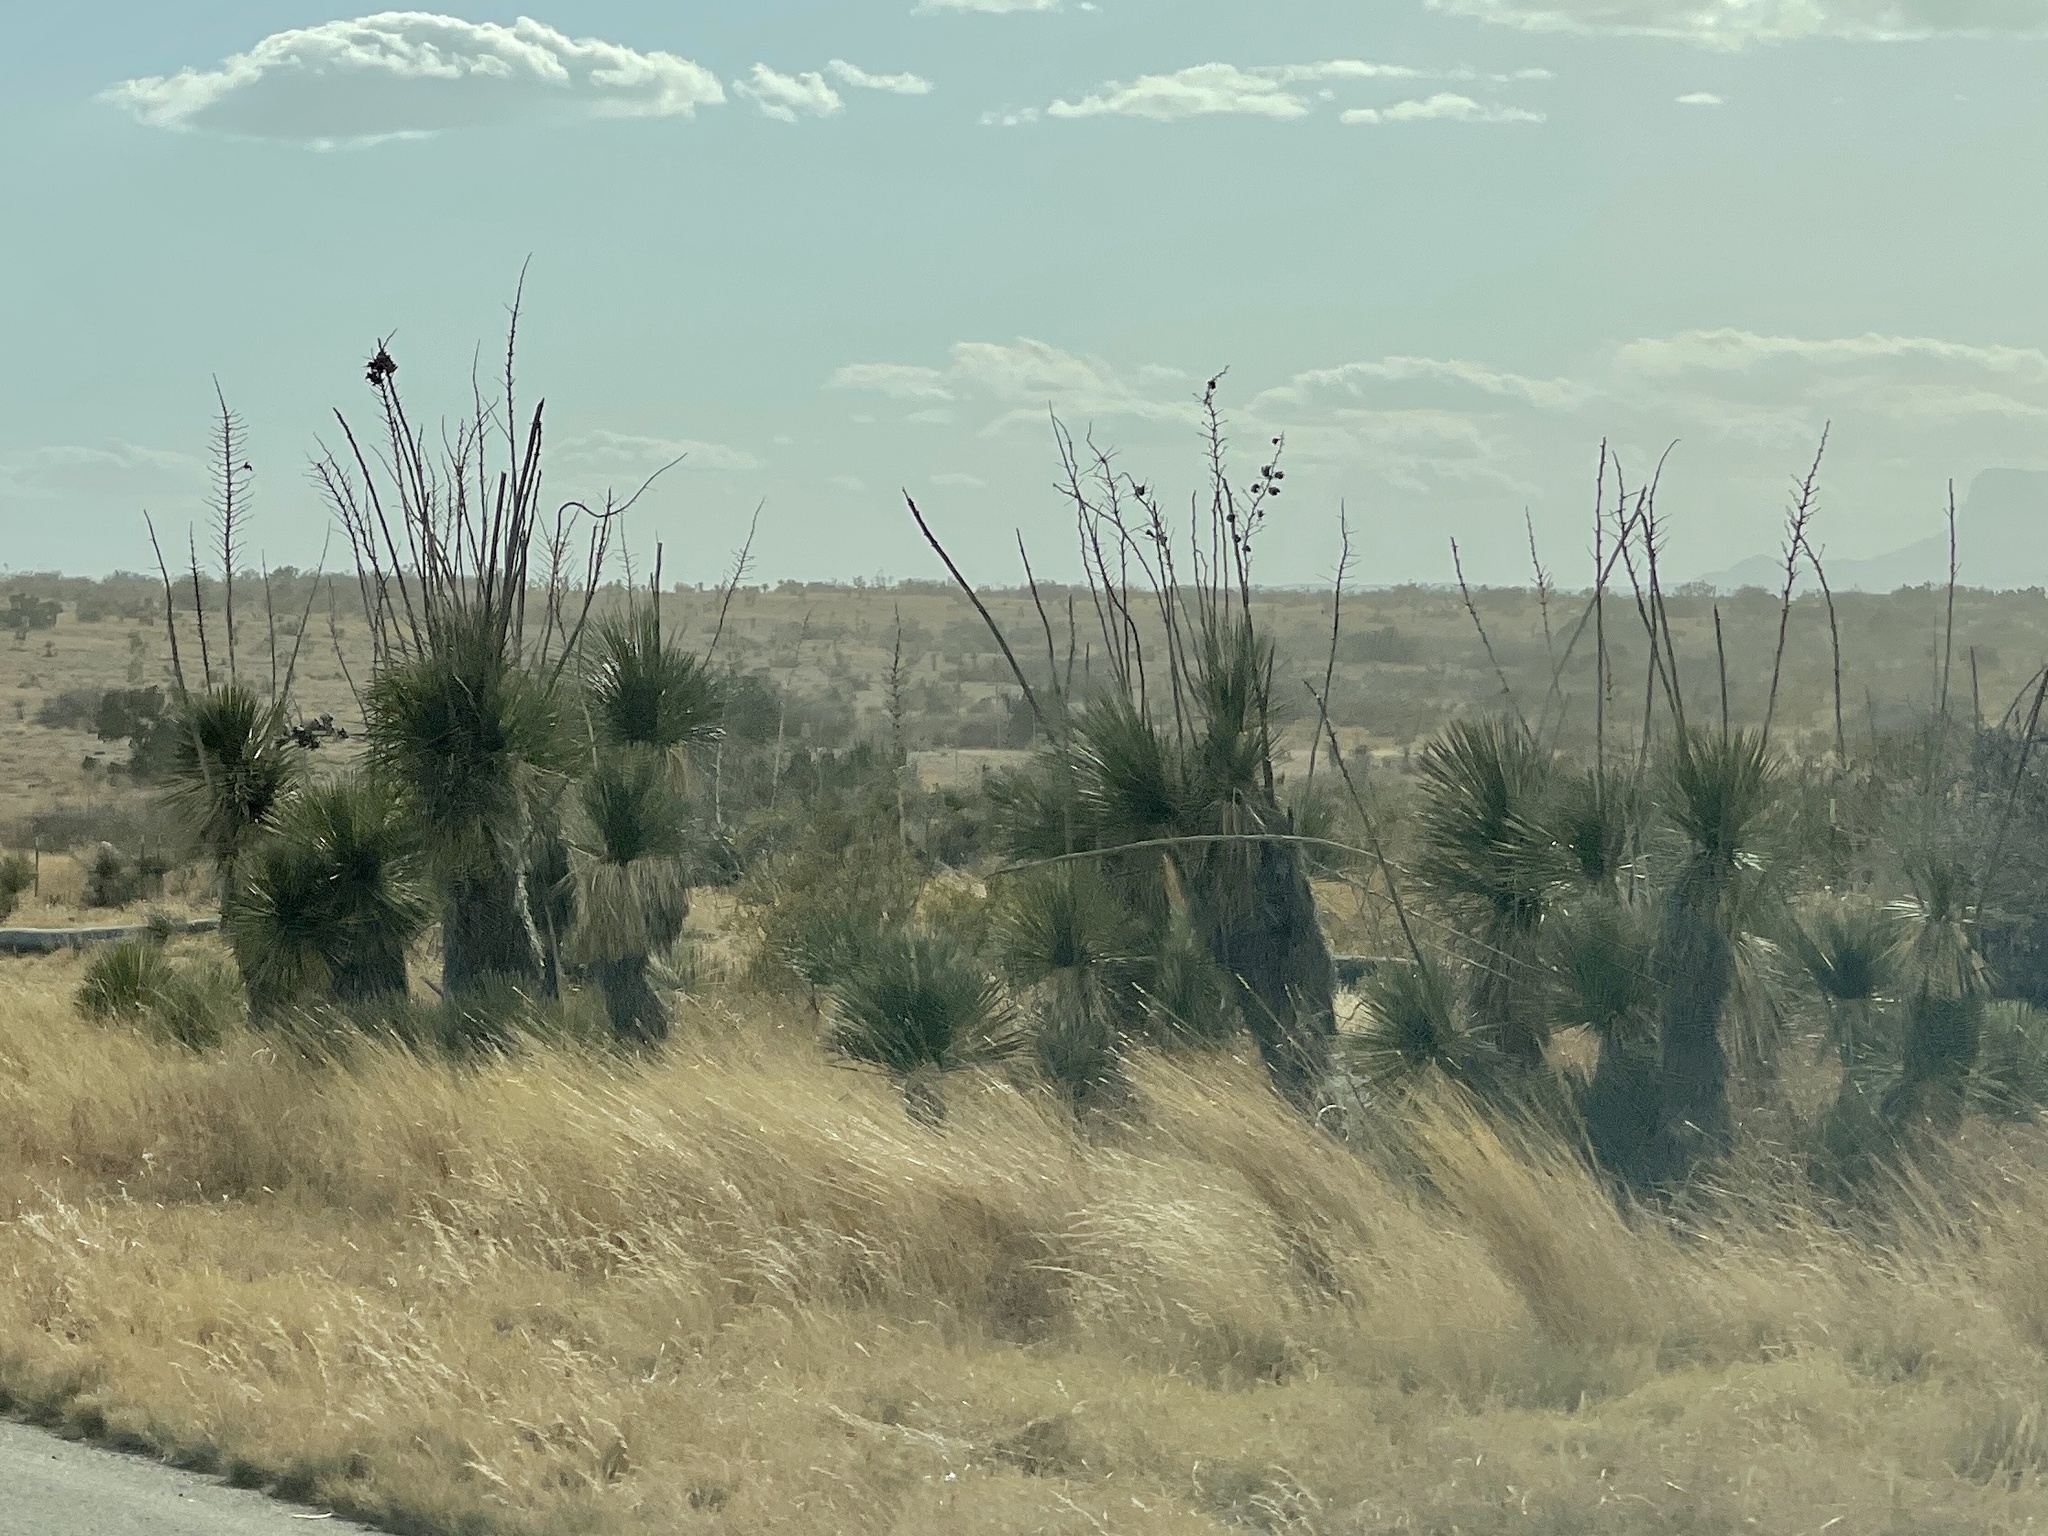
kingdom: Plantae
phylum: Tracheophyta
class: Liliopsida
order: Asparagales
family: Asparagaceae
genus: Yucca
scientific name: Yucca elata
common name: Palmella
